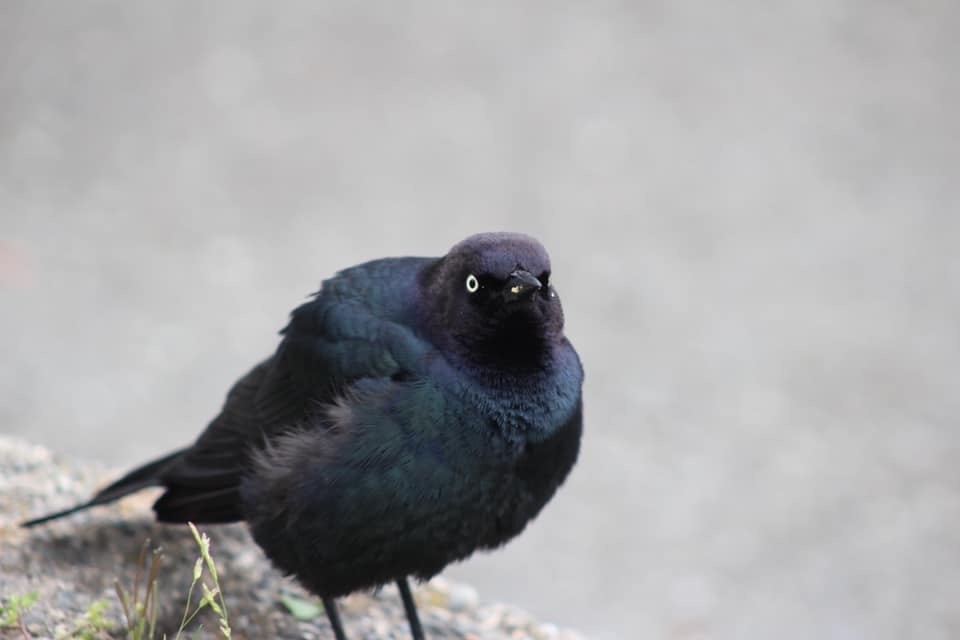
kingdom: Animalia
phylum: Chordata
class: Aves
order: Passeriformes
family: Icteridae
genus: Euphagus
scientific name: Euphagus cyanocephalus
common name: Brewer's blackbird
